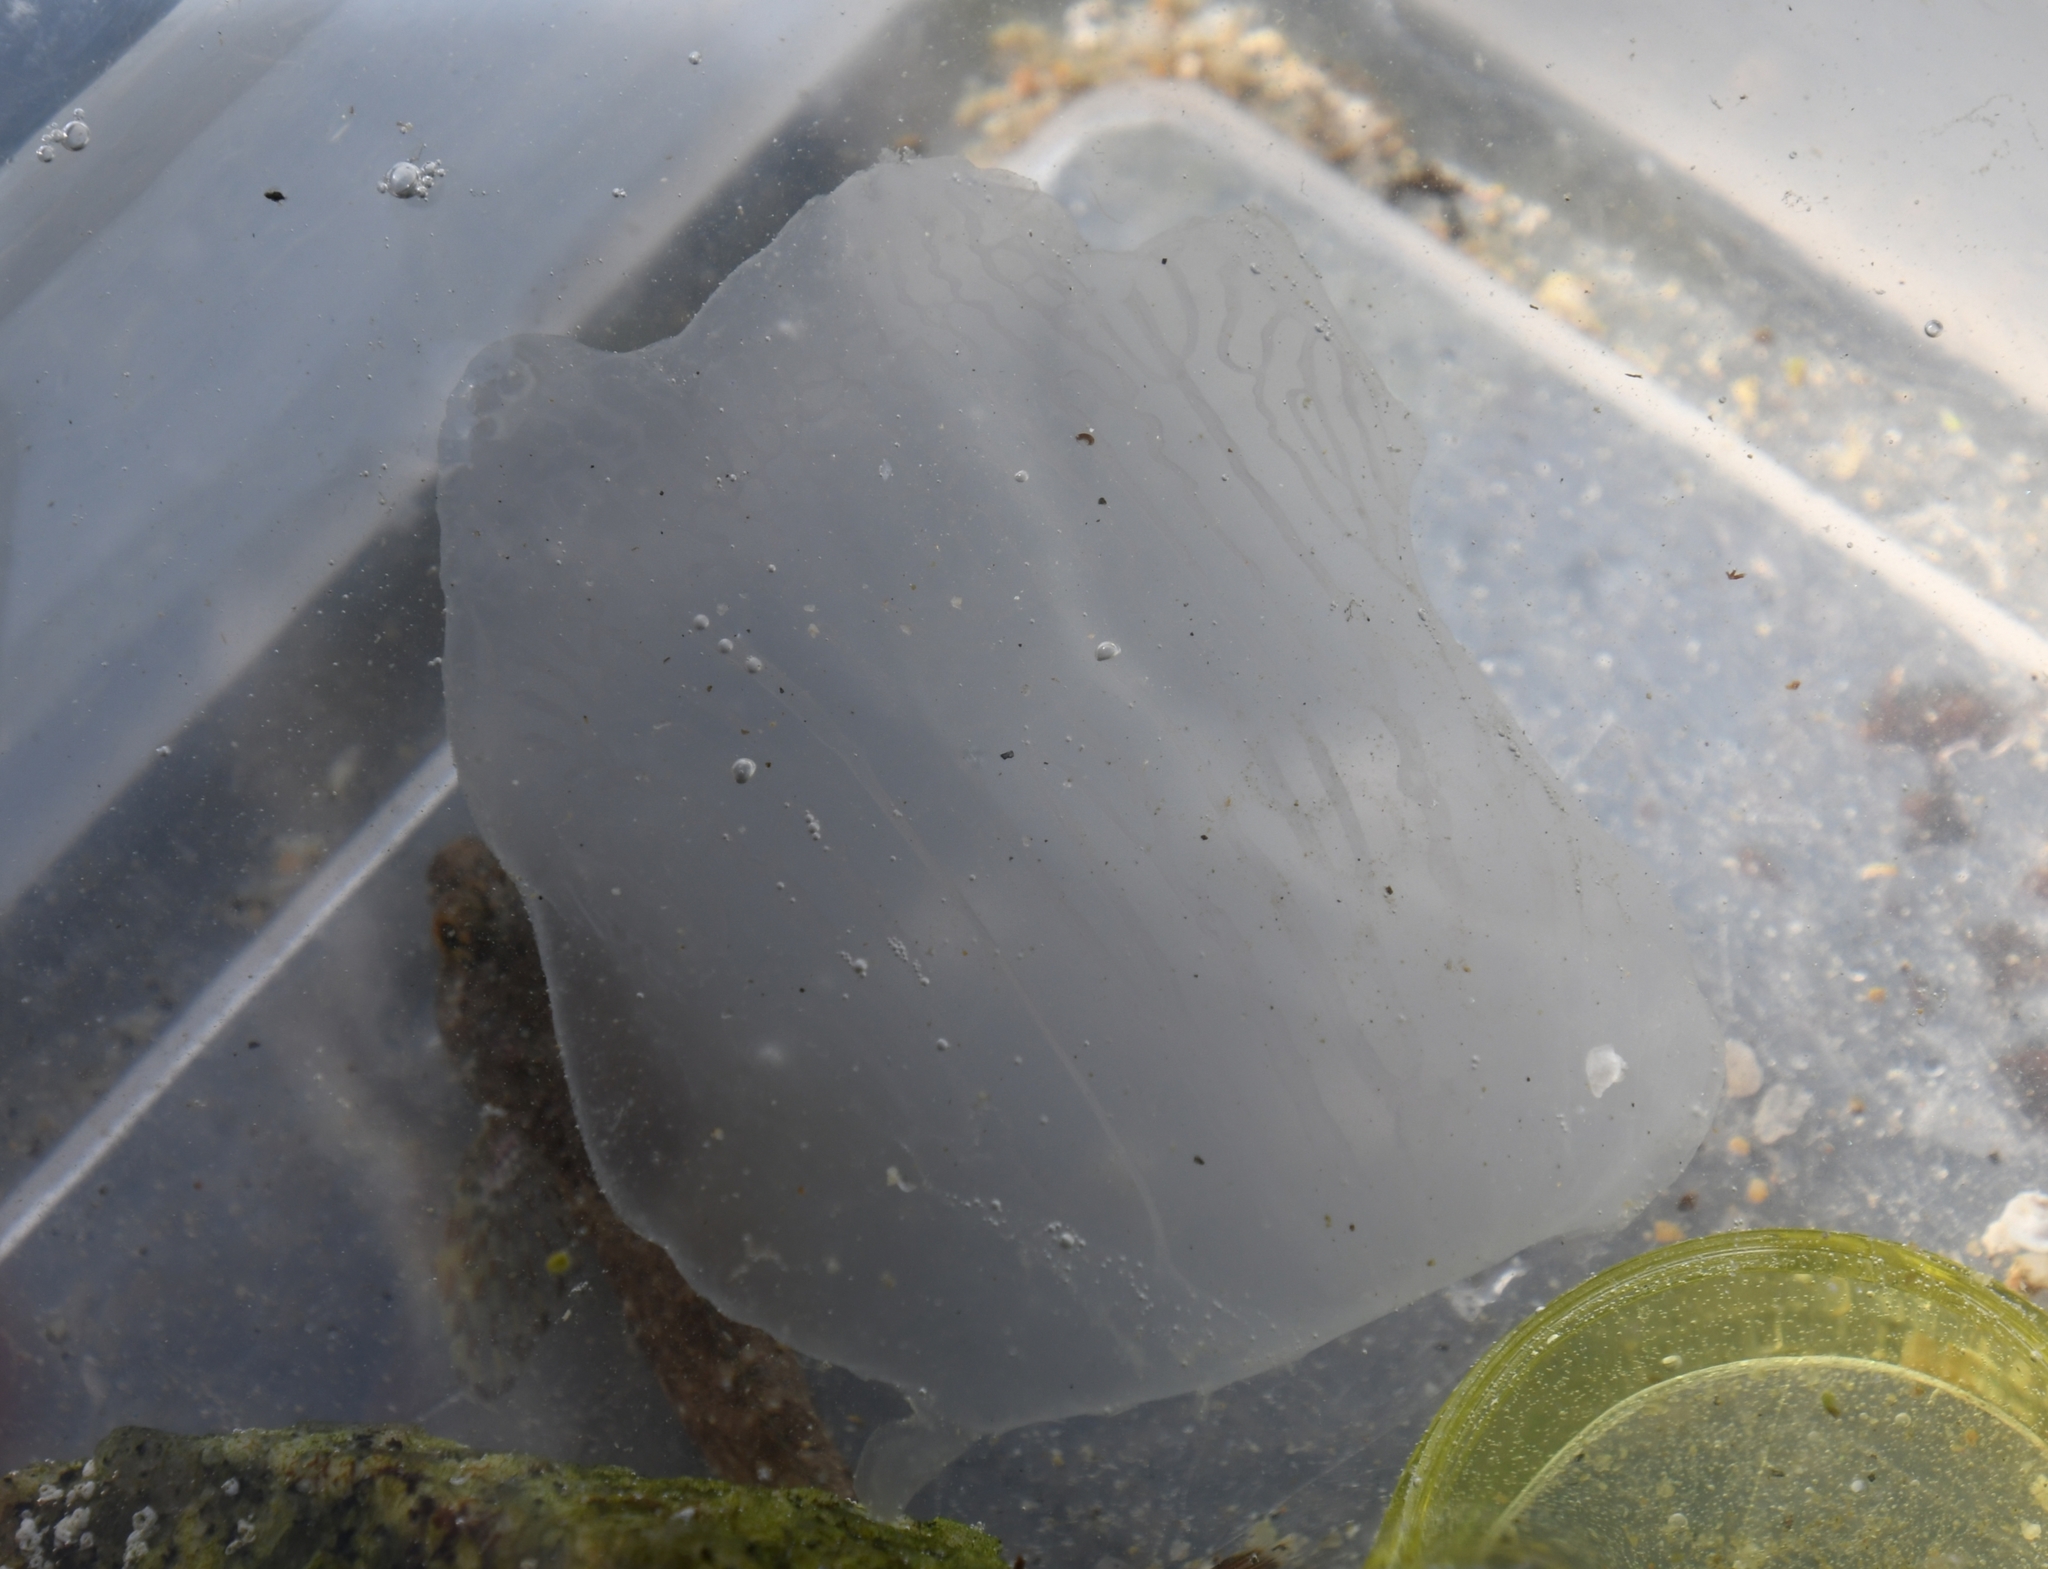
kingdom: Animalia
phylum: Cnidaria
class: Scyphozoa
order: Semaeostomeae
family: Ulmaridae
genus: Aurelia
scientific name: Aurelia labiata
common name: Pacific moon jelly
